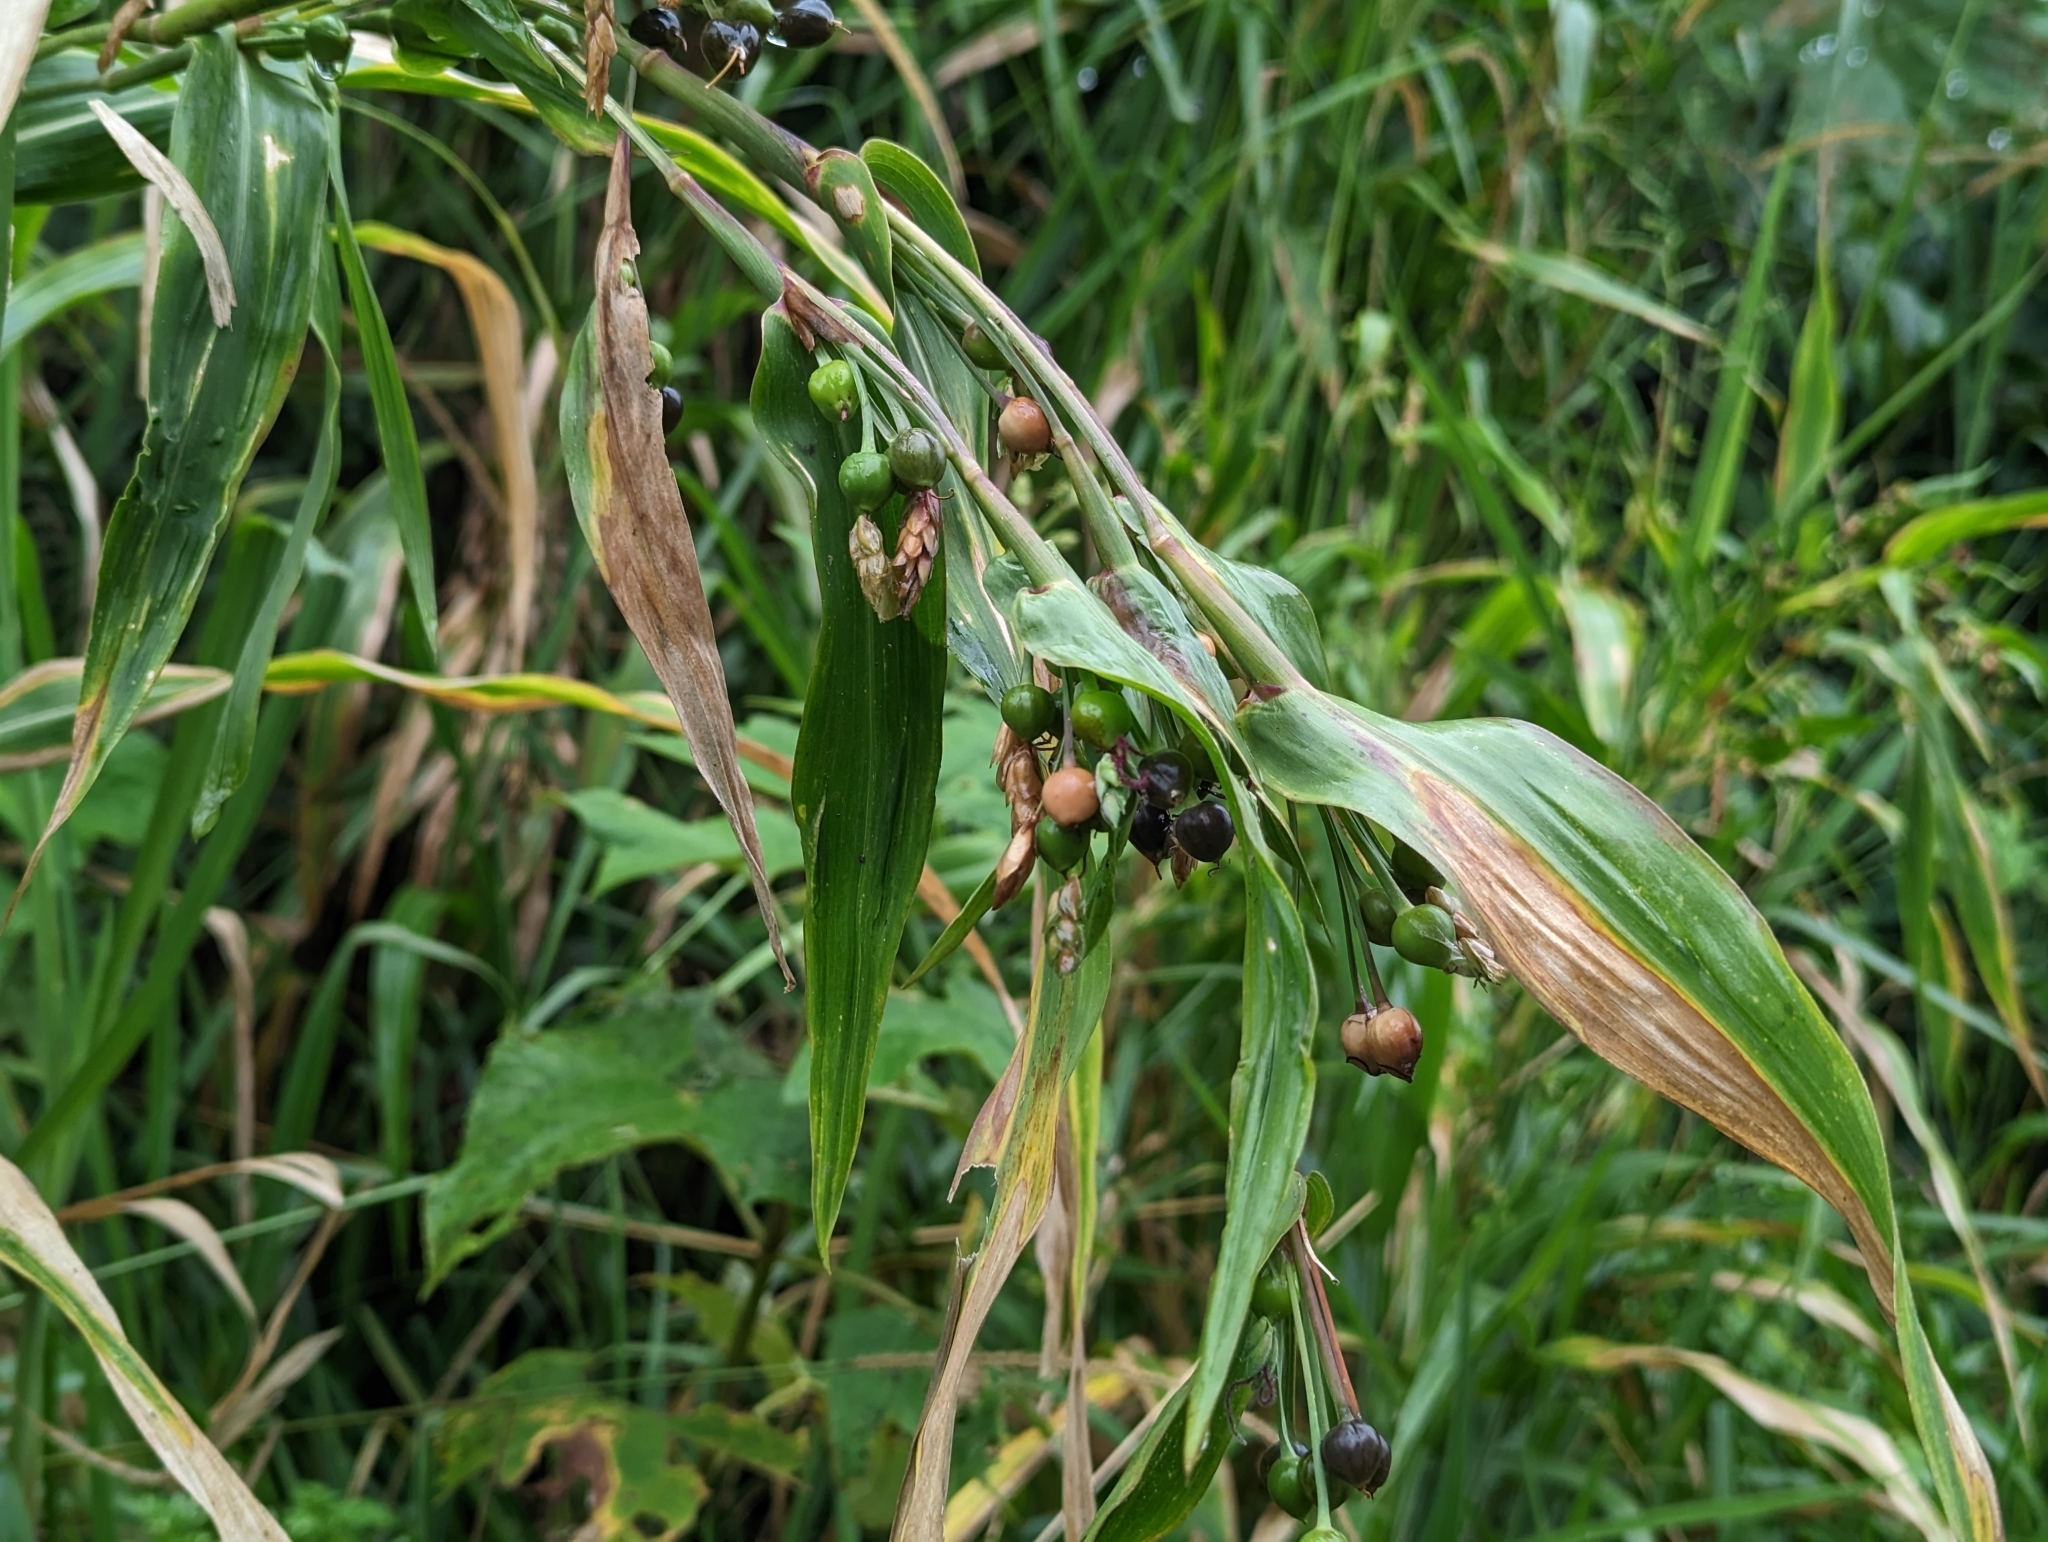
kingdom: Plantae
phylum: Tracheophyta
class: Liliopsida
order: Poales
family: Poaceae
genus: Coix
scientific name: Coix lacryma-jobi
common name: Job's tears
